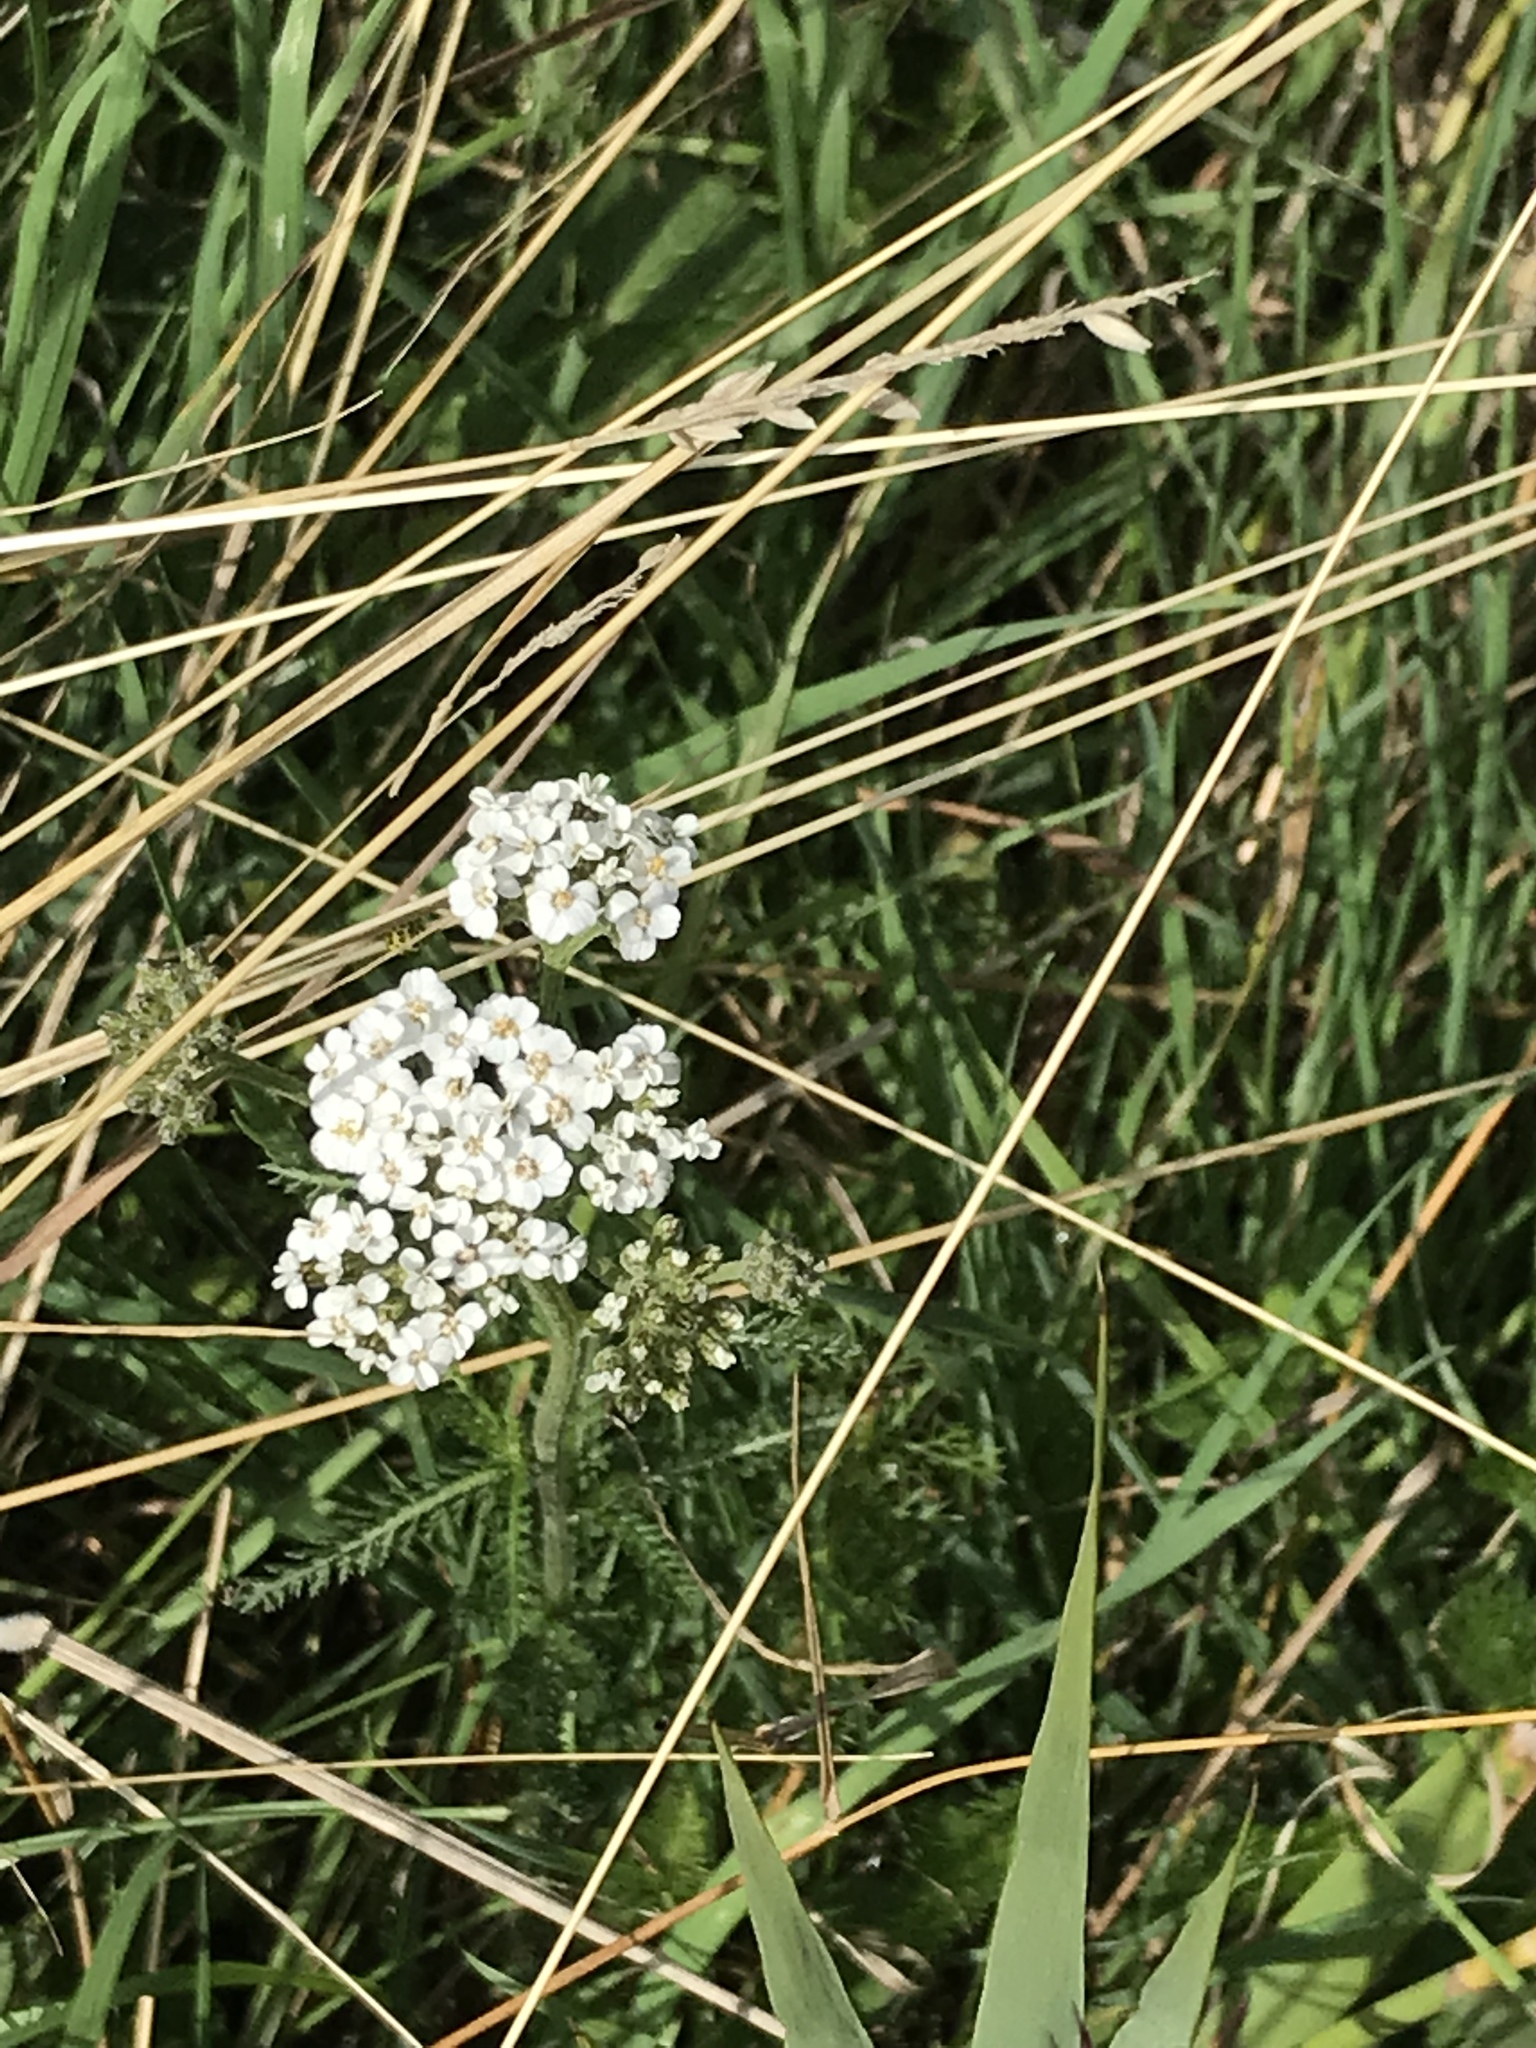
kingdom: Plantae
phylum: Tracheophyta
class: Magnoliopsida
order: Asterales
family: Asteraceae
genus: Achillea
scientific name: Achillea millefolium
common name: Yarrow
